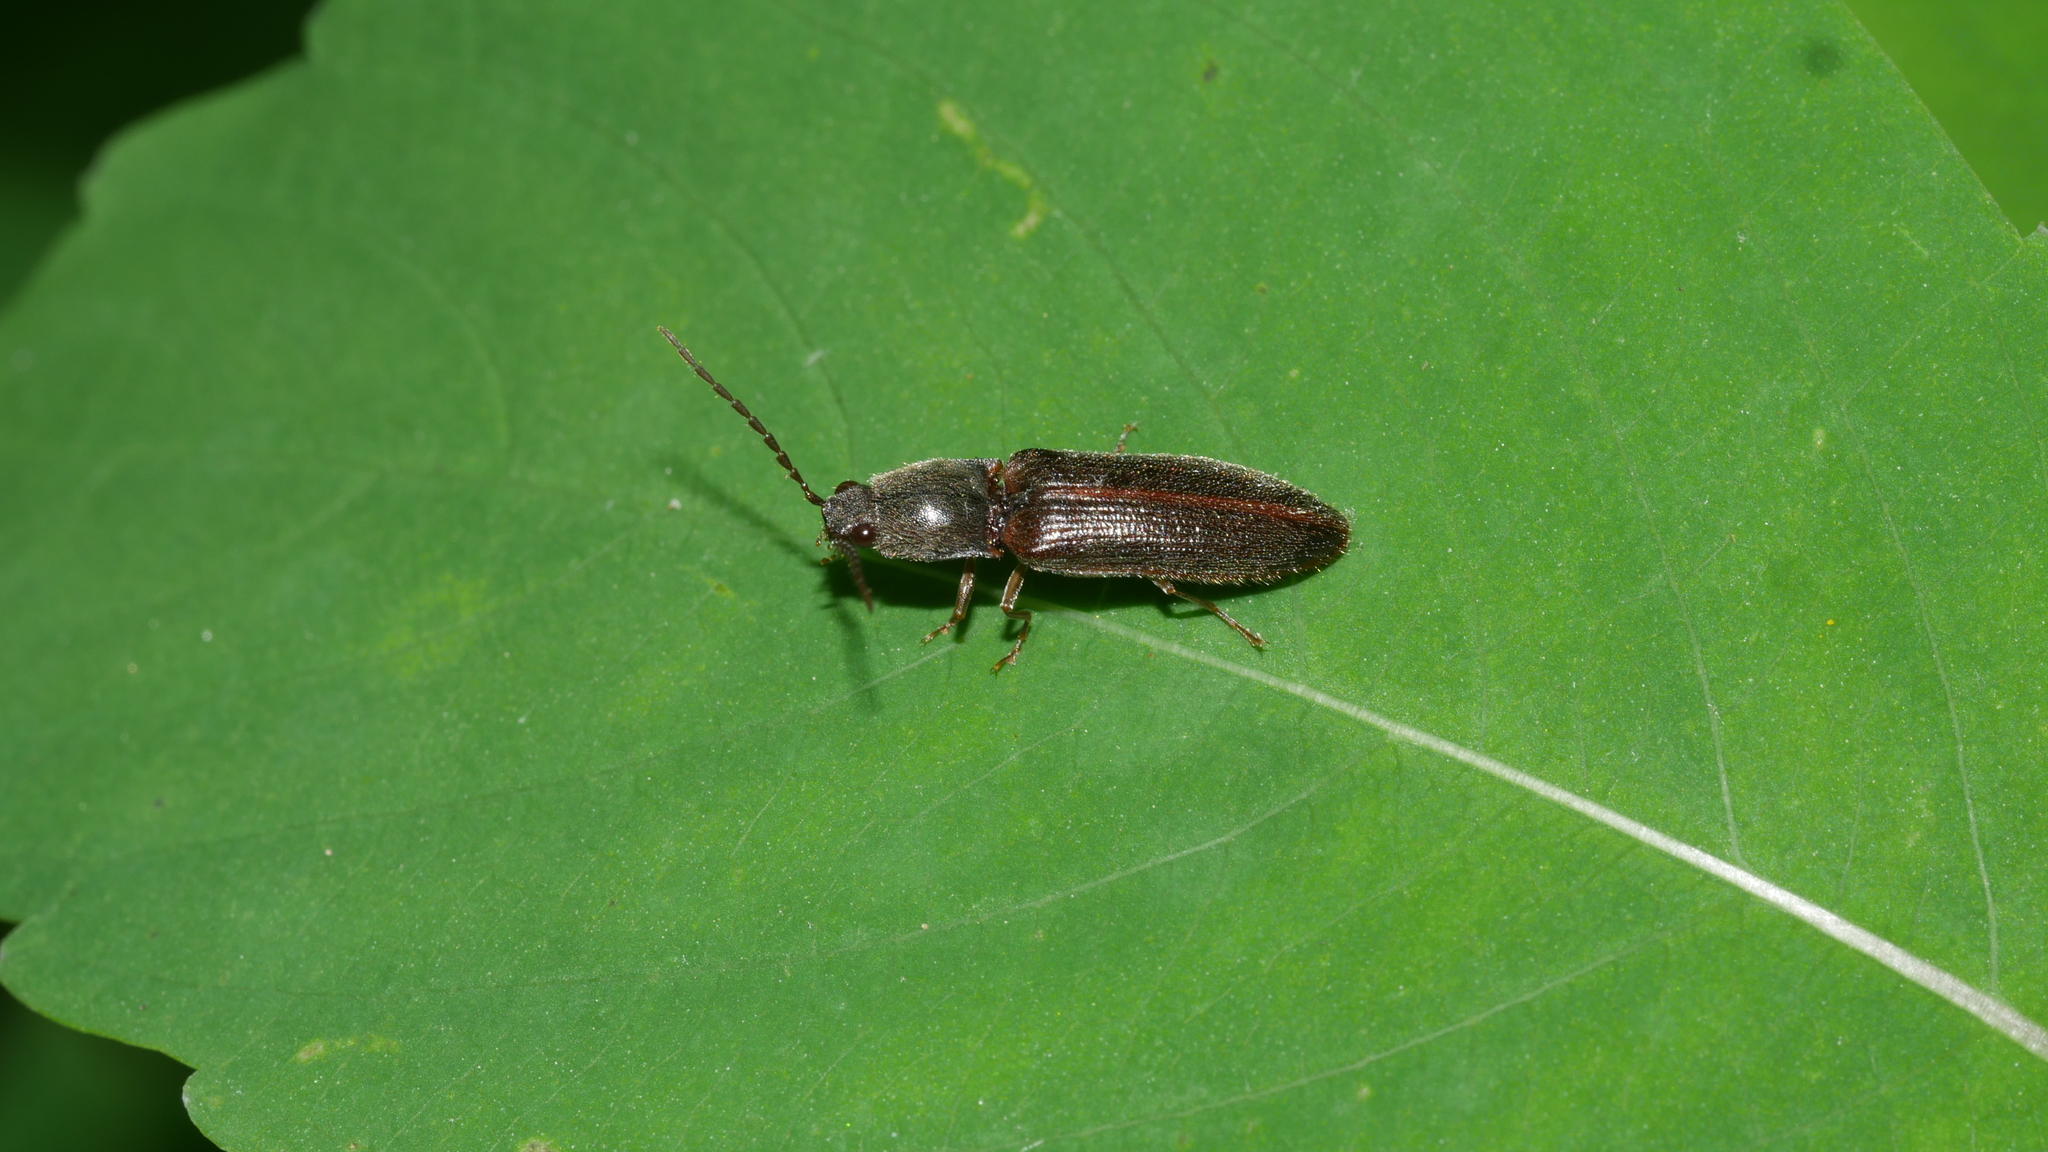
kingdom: Animalia
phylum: Arthropoda
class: Insecta
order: Coleoptera
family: Elateridae
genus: Athous
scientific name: Athous brightwelli
